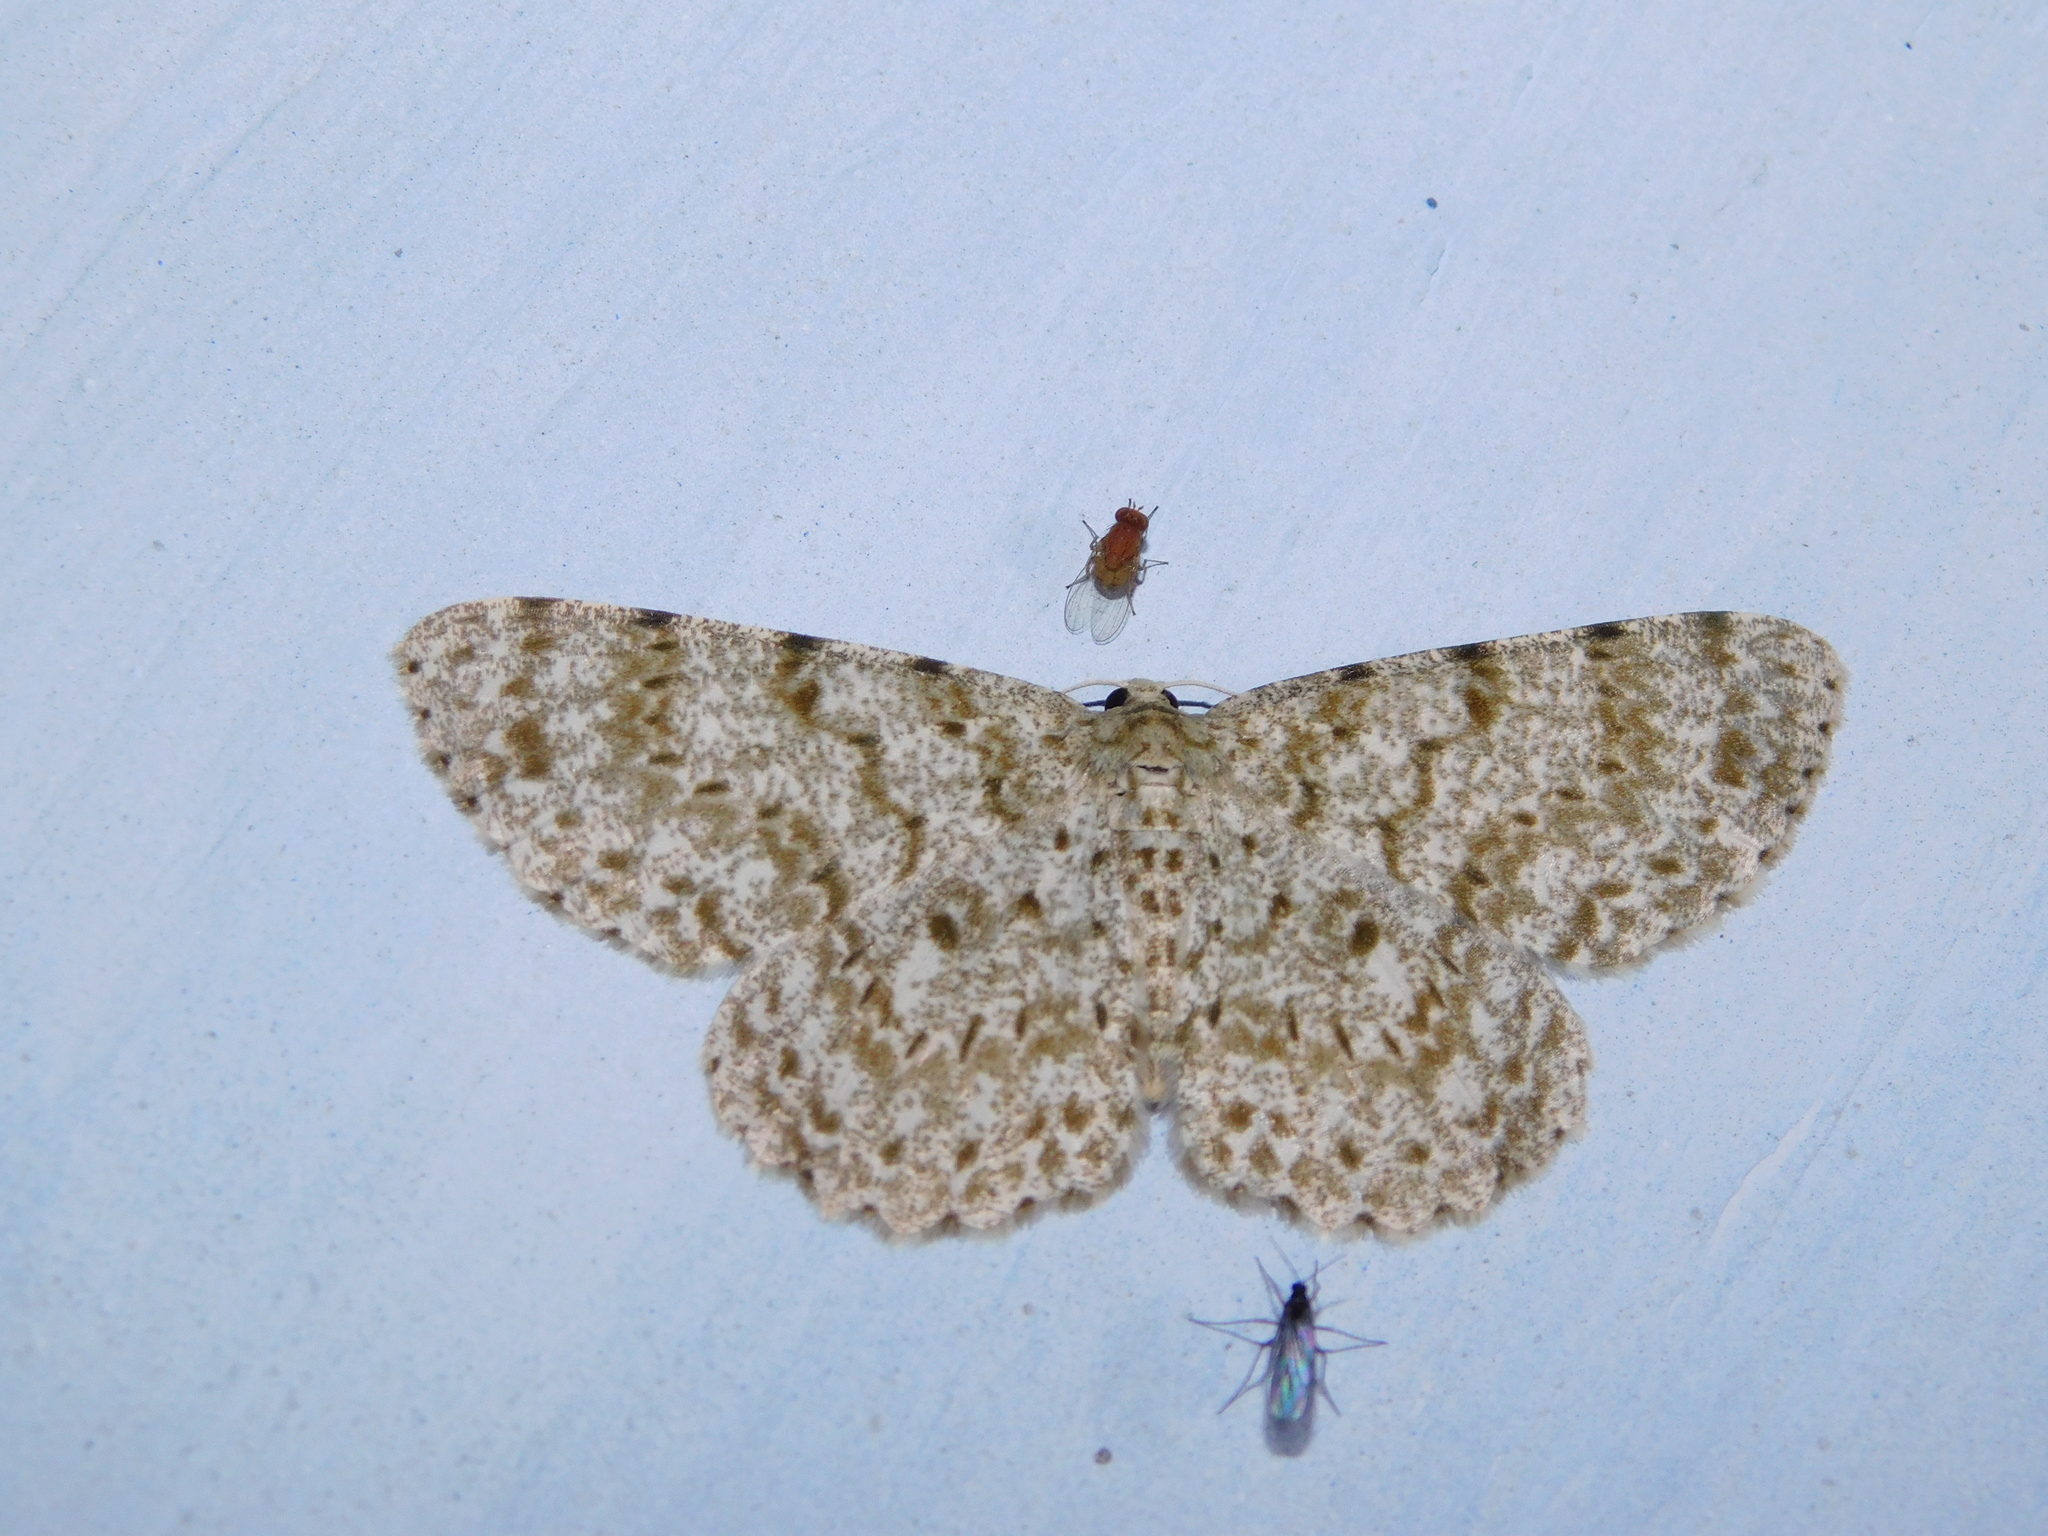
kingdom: Animalia
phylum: Arthropoda
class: Insecta
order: Lepidoptera
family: Geometridae
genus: Catoria
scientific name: Catoria sublavaria
